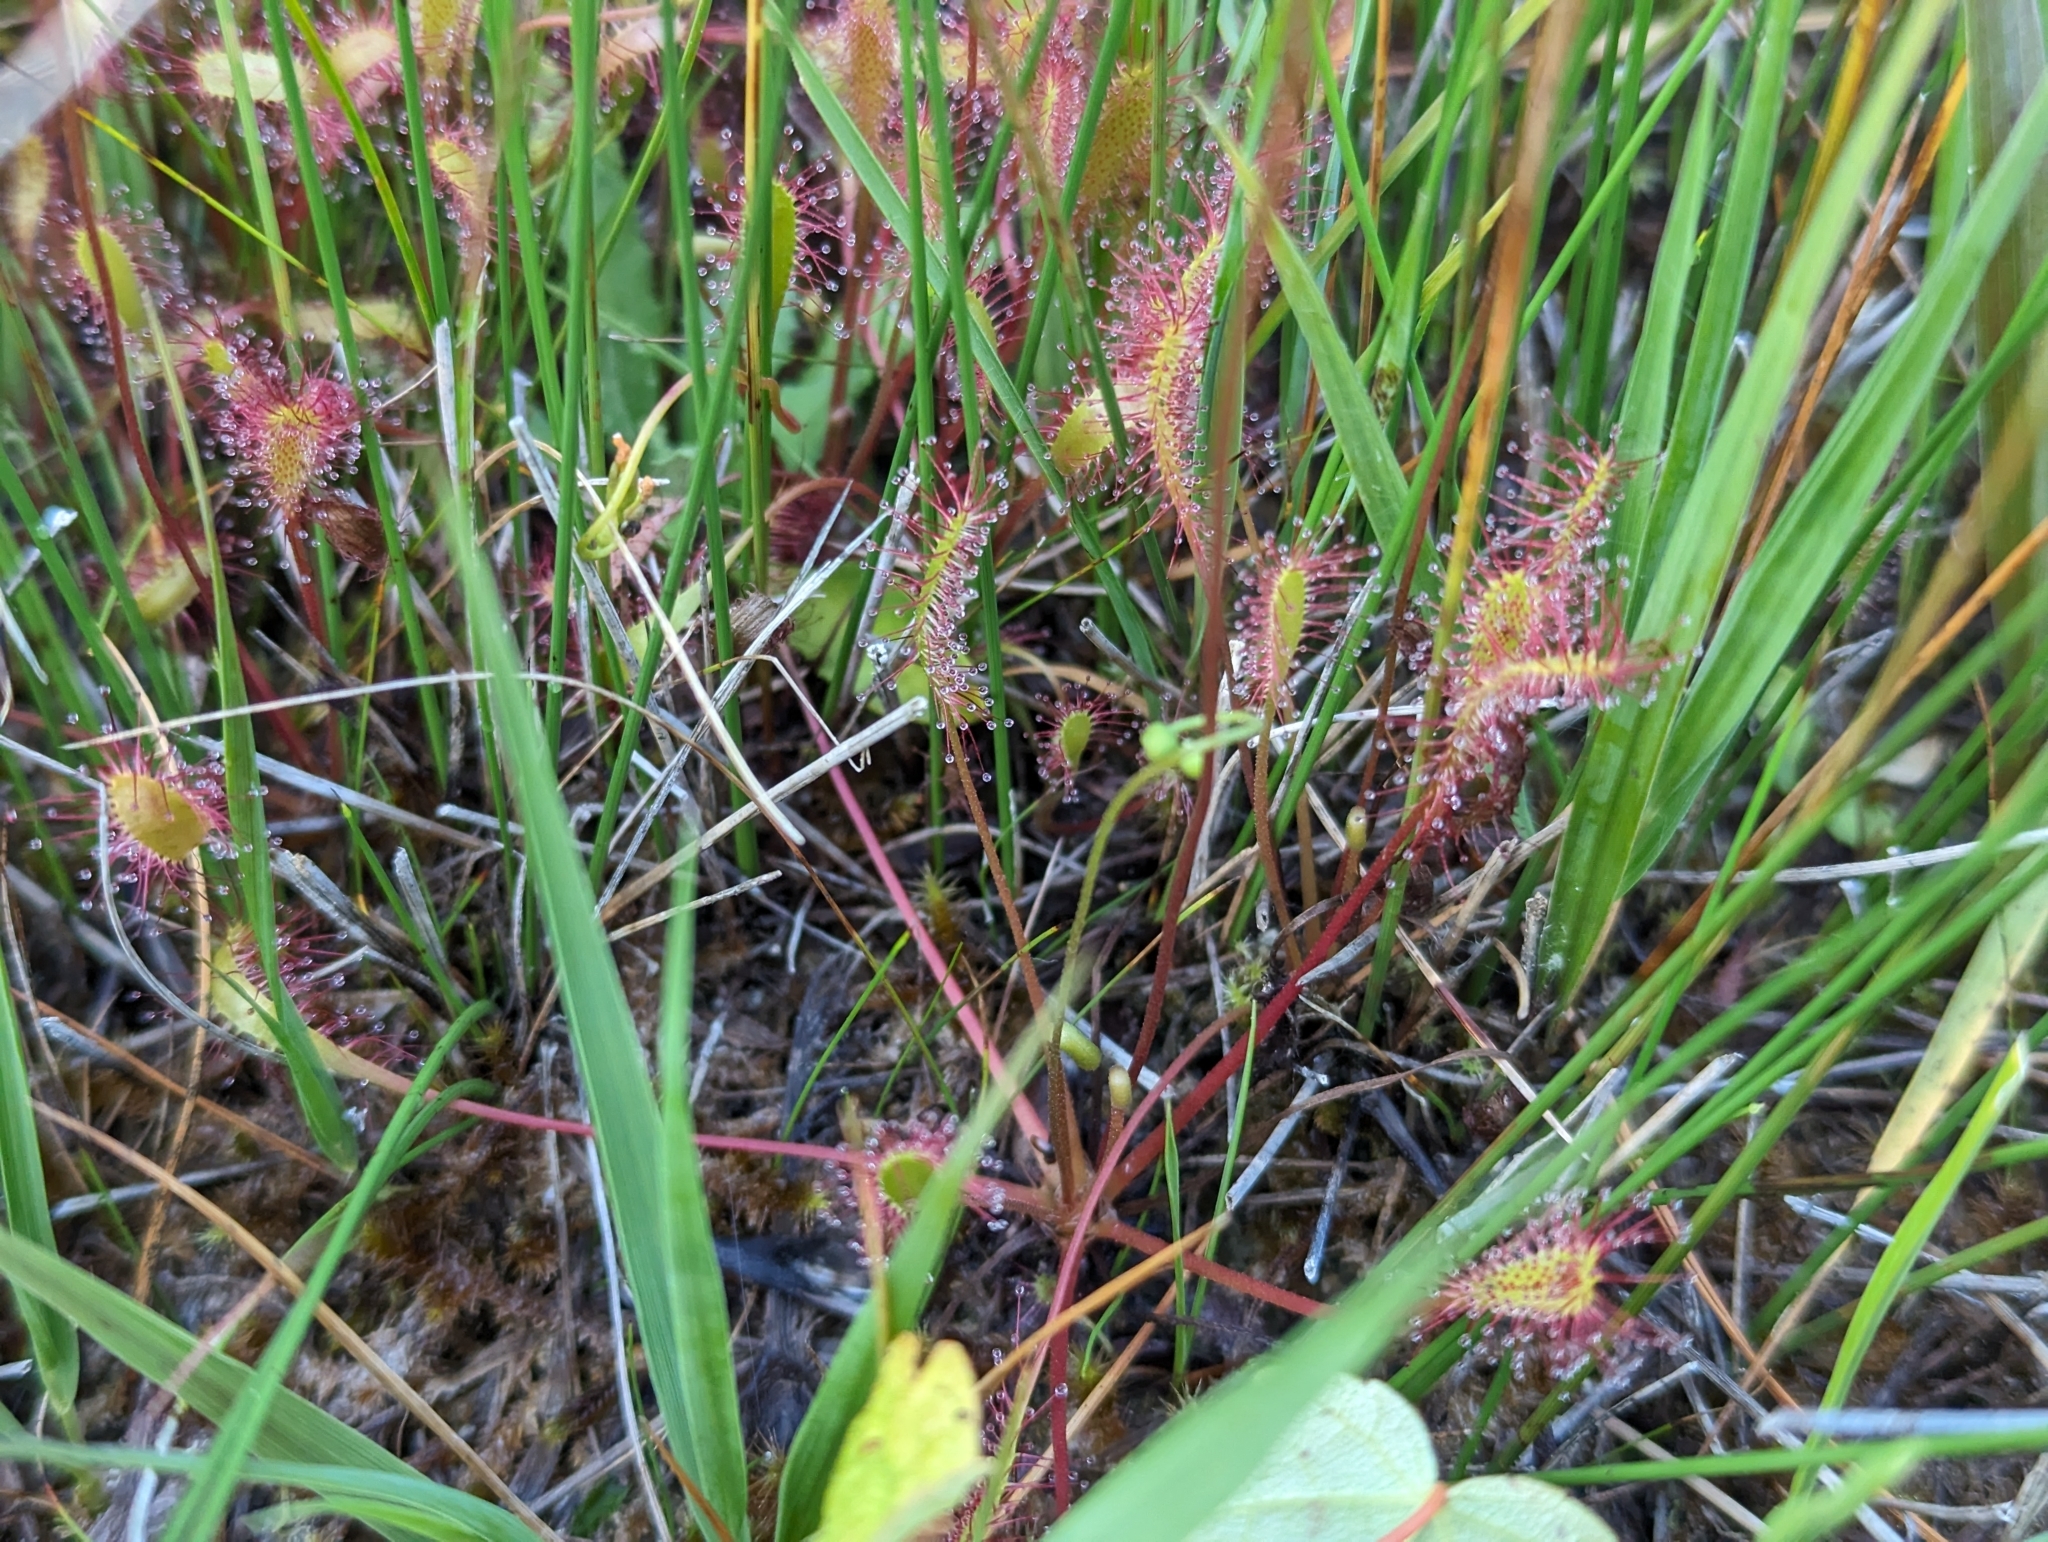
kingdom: Plantae
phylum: Tracheophyta
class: Magnoliopsida
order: Caryophyllales
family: Droseraceae
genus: Drosera
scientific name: Drosera anglica
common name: Great sundew
